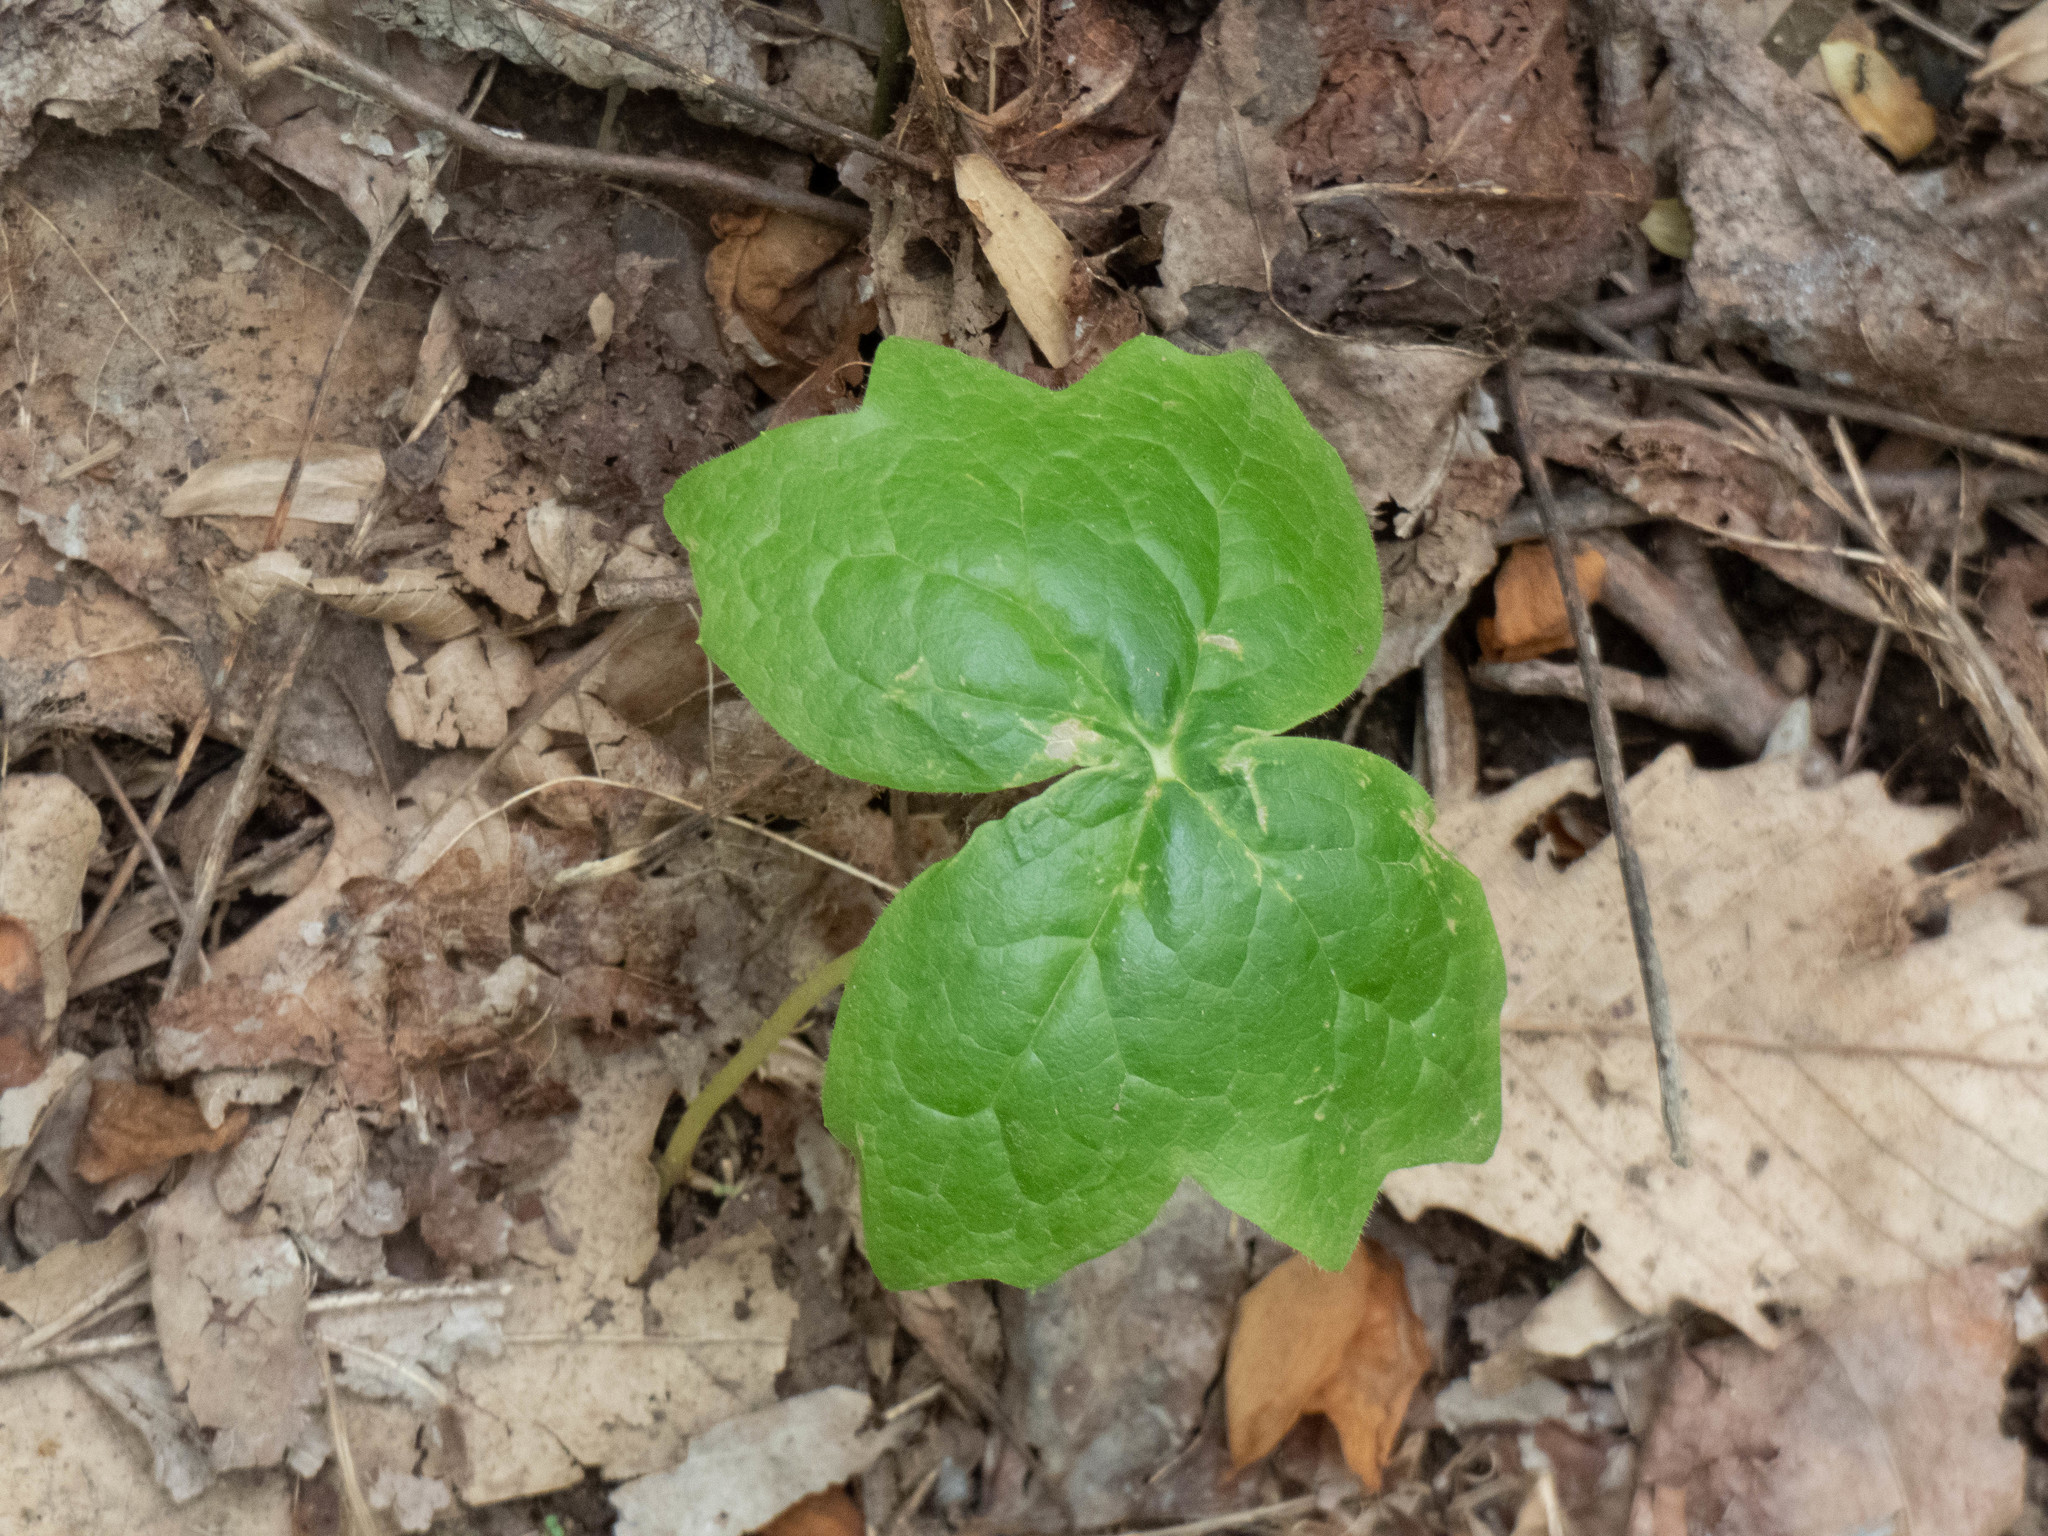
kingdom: Plantae
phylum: Tracheophyta
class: Magnoliopsida
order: Ranunculales
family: Berberidaceae
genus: Podophyllum
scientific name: Podophyllum peltatum
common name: Wild mandrake
